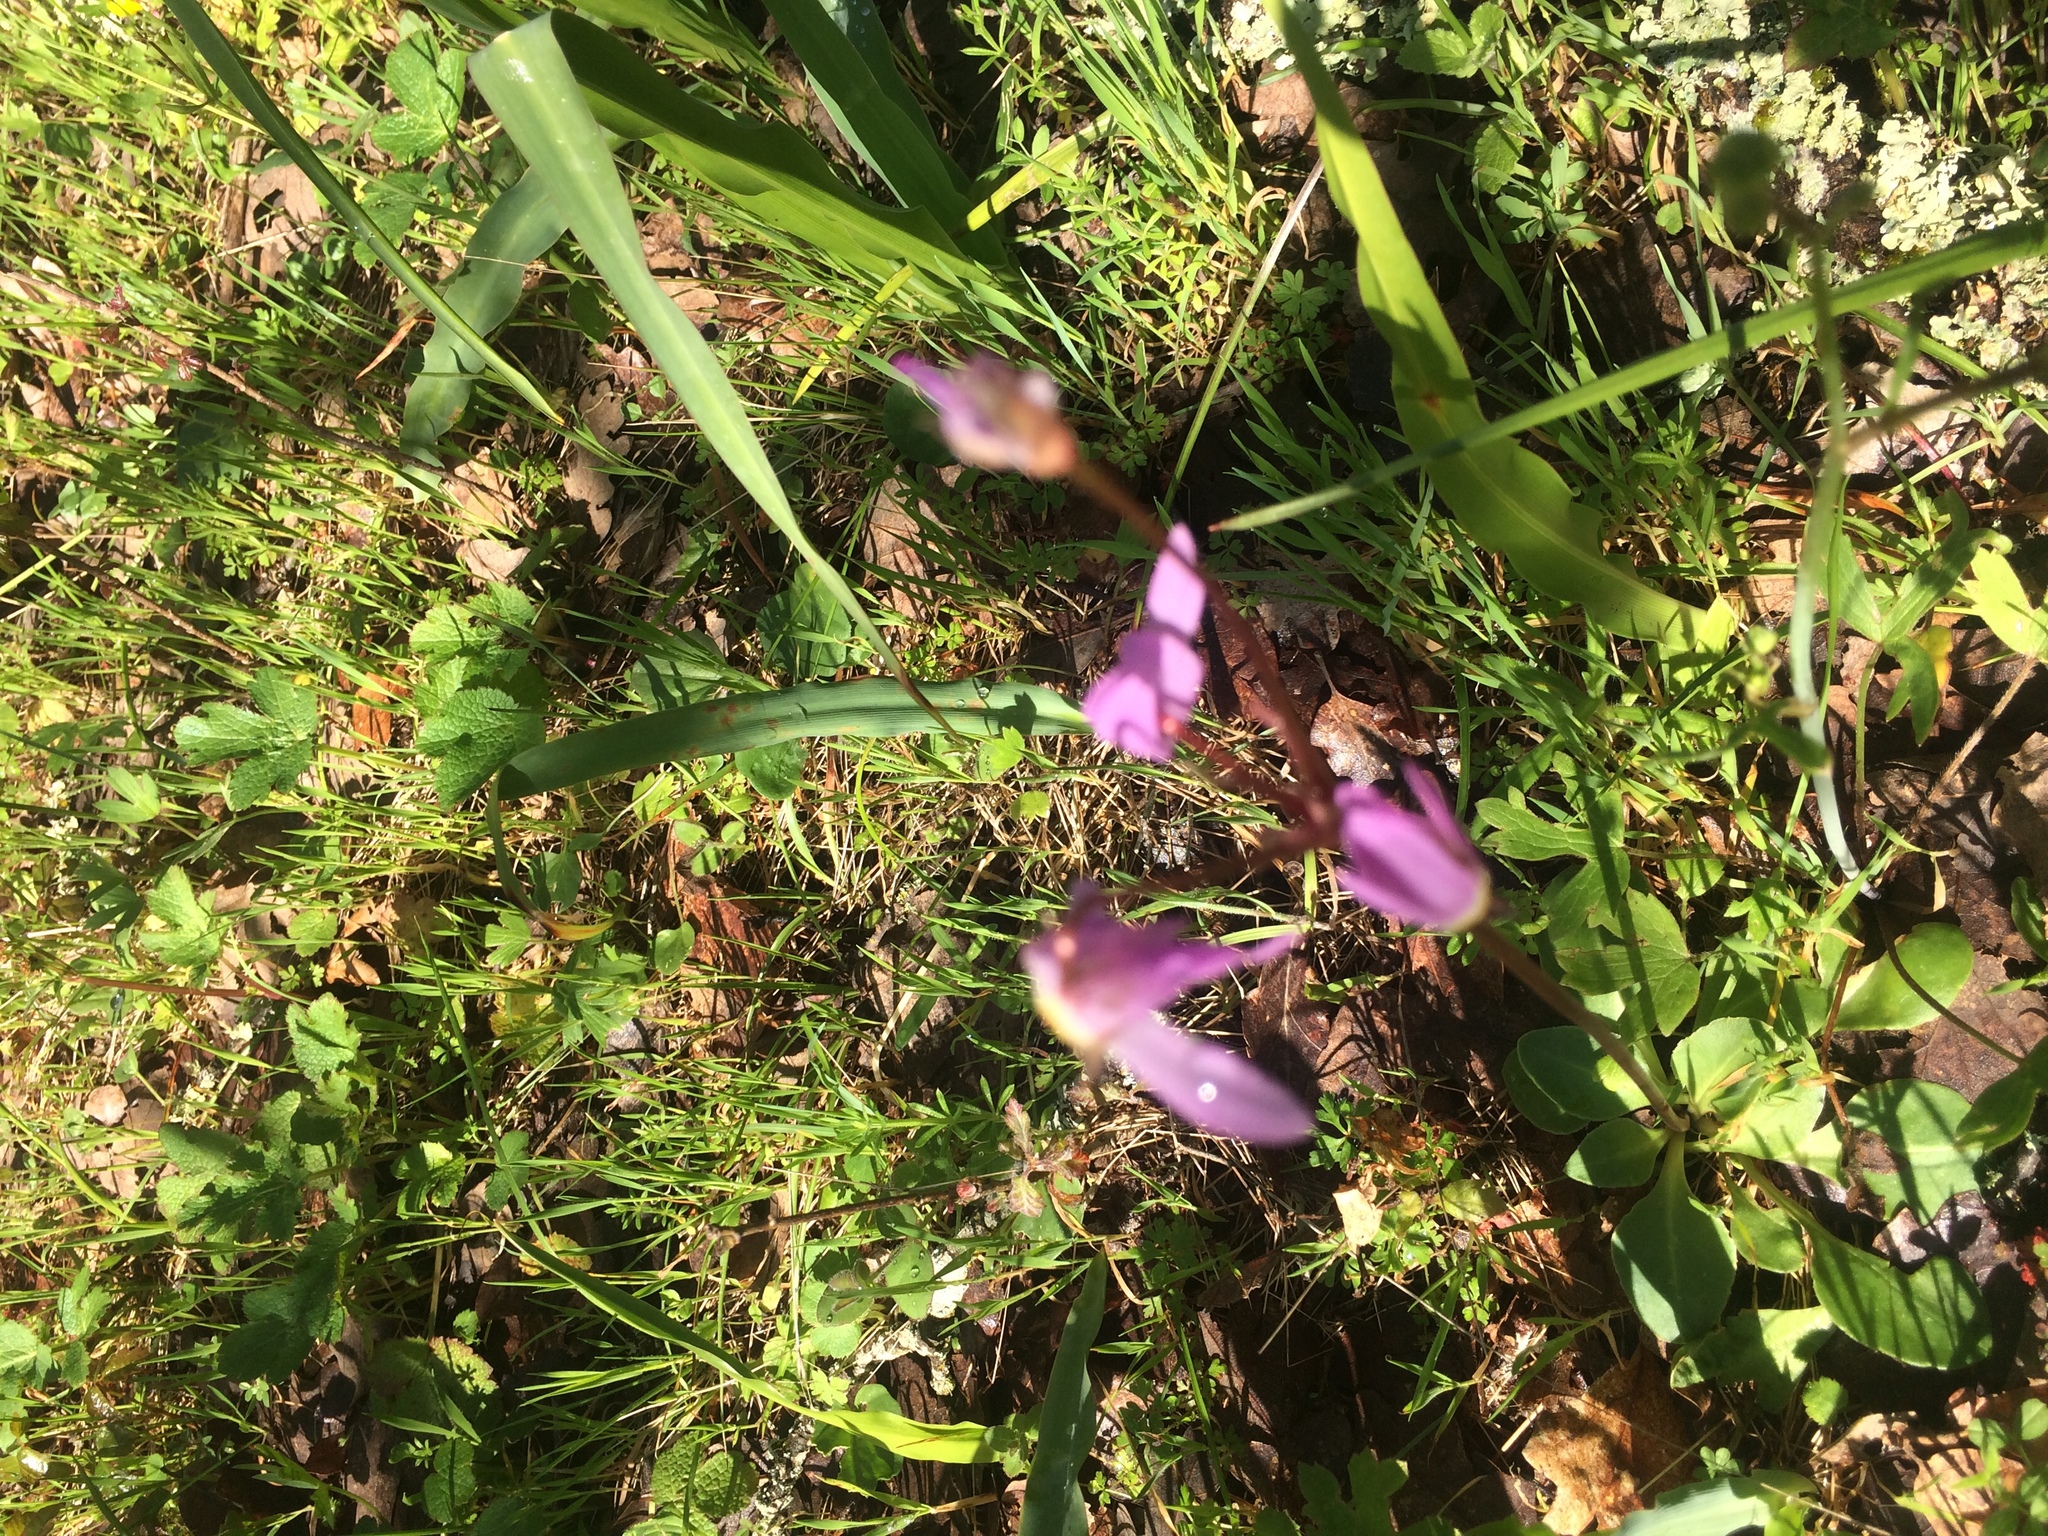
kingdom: Plantae
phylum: Tracheophyta
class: Magnoliopsida
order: Ericales
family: Primulaceae
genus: Dodecatheon
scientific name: Dodecatheon hendersonii
